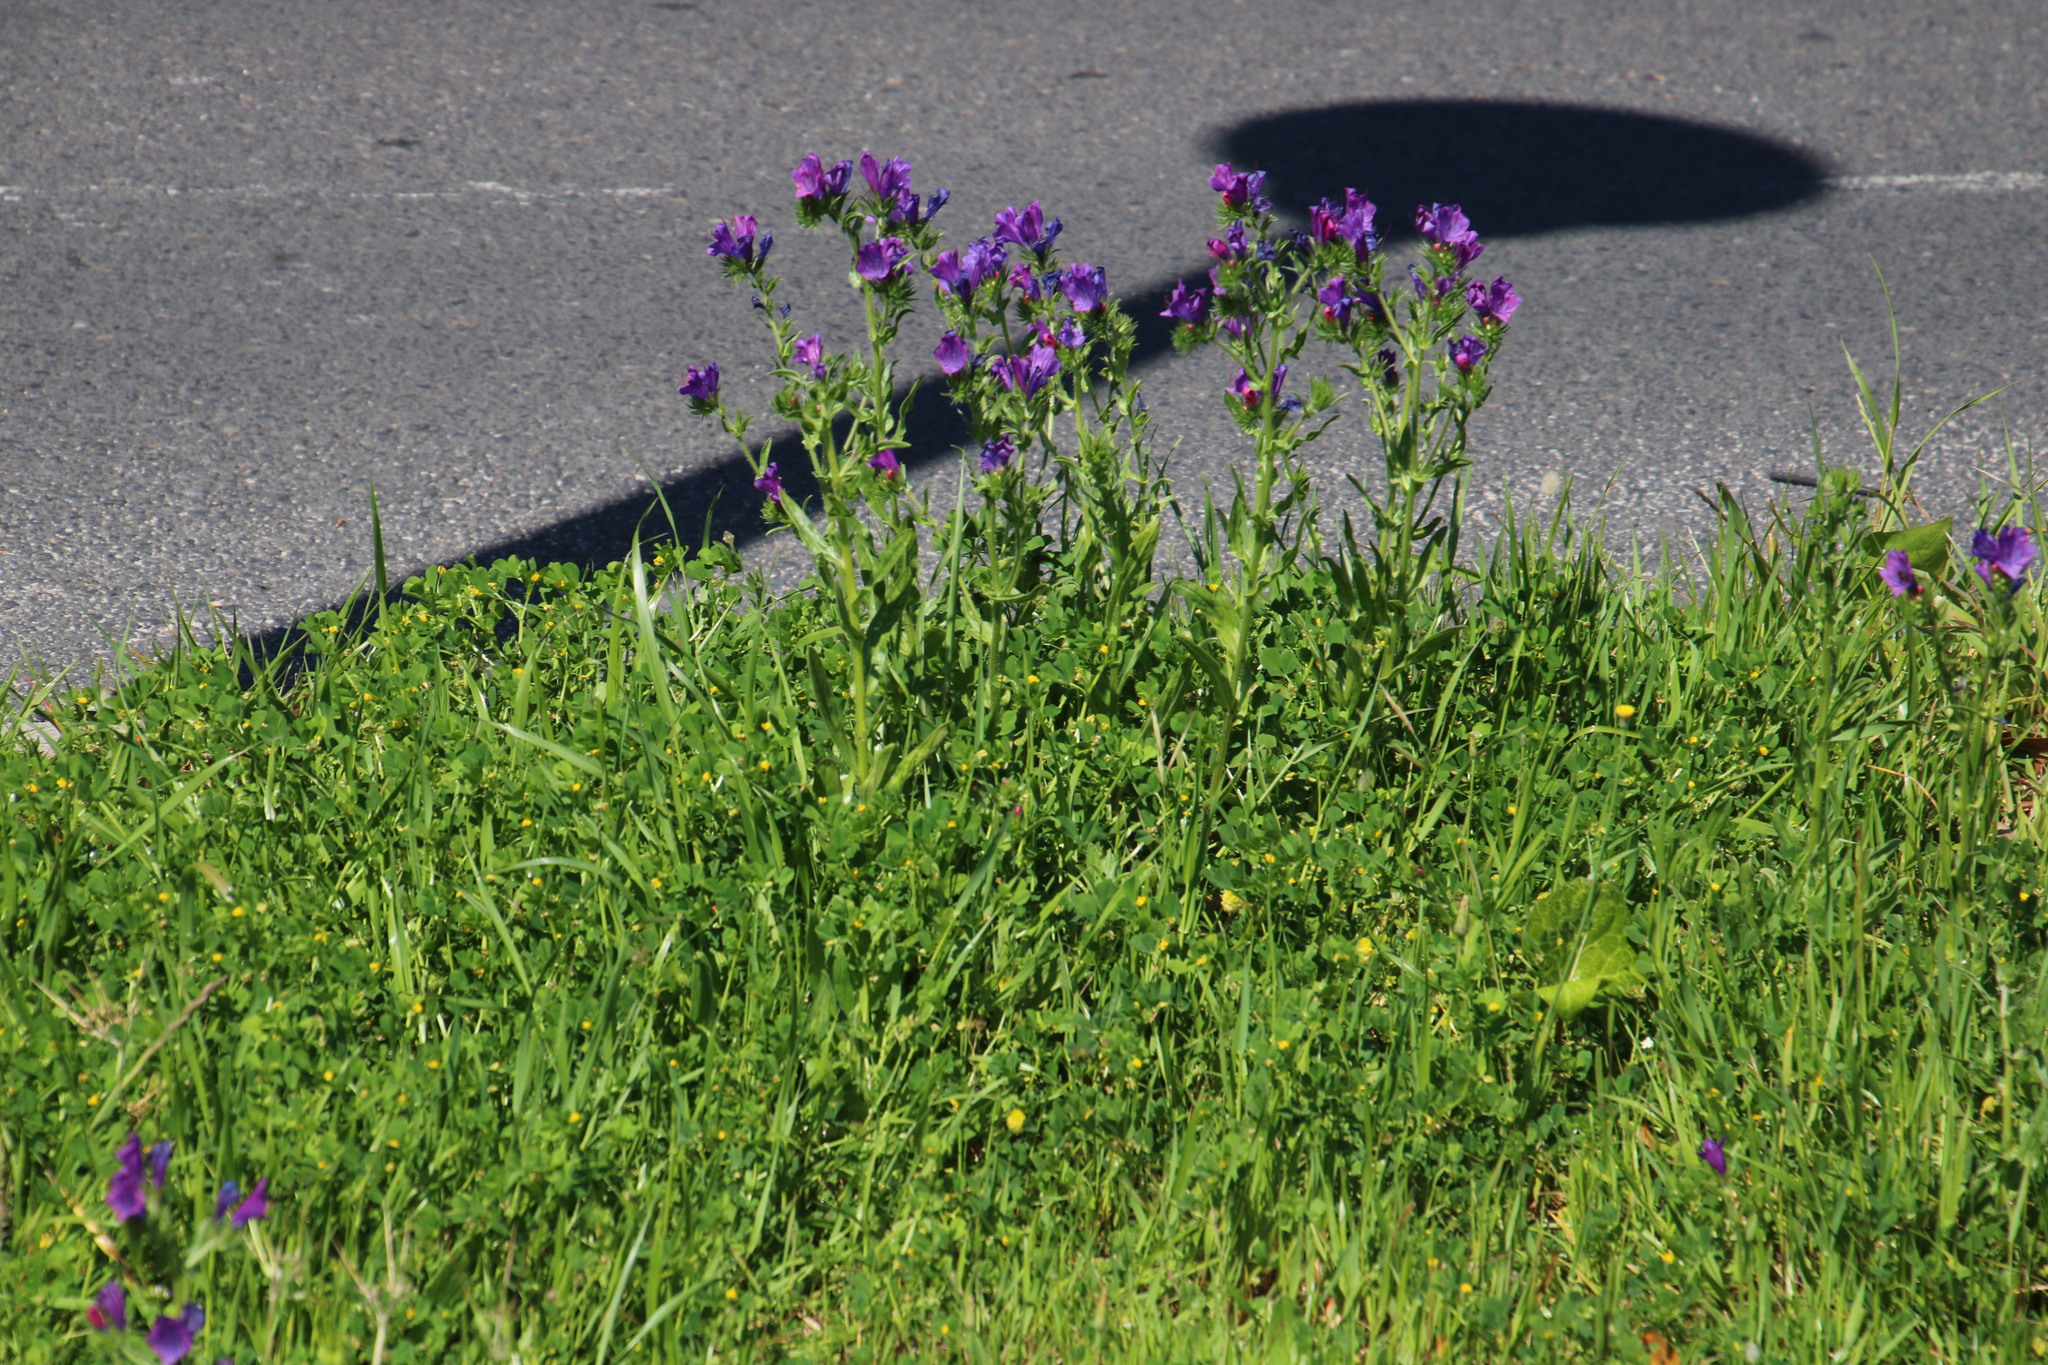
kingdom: Plantae
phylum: Tracheophyta
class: Magnoliopsida
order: Boraginales
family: Boraginaceae
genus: Echium
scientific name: Echium plantagineum
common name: Purple viper's-bugloss
